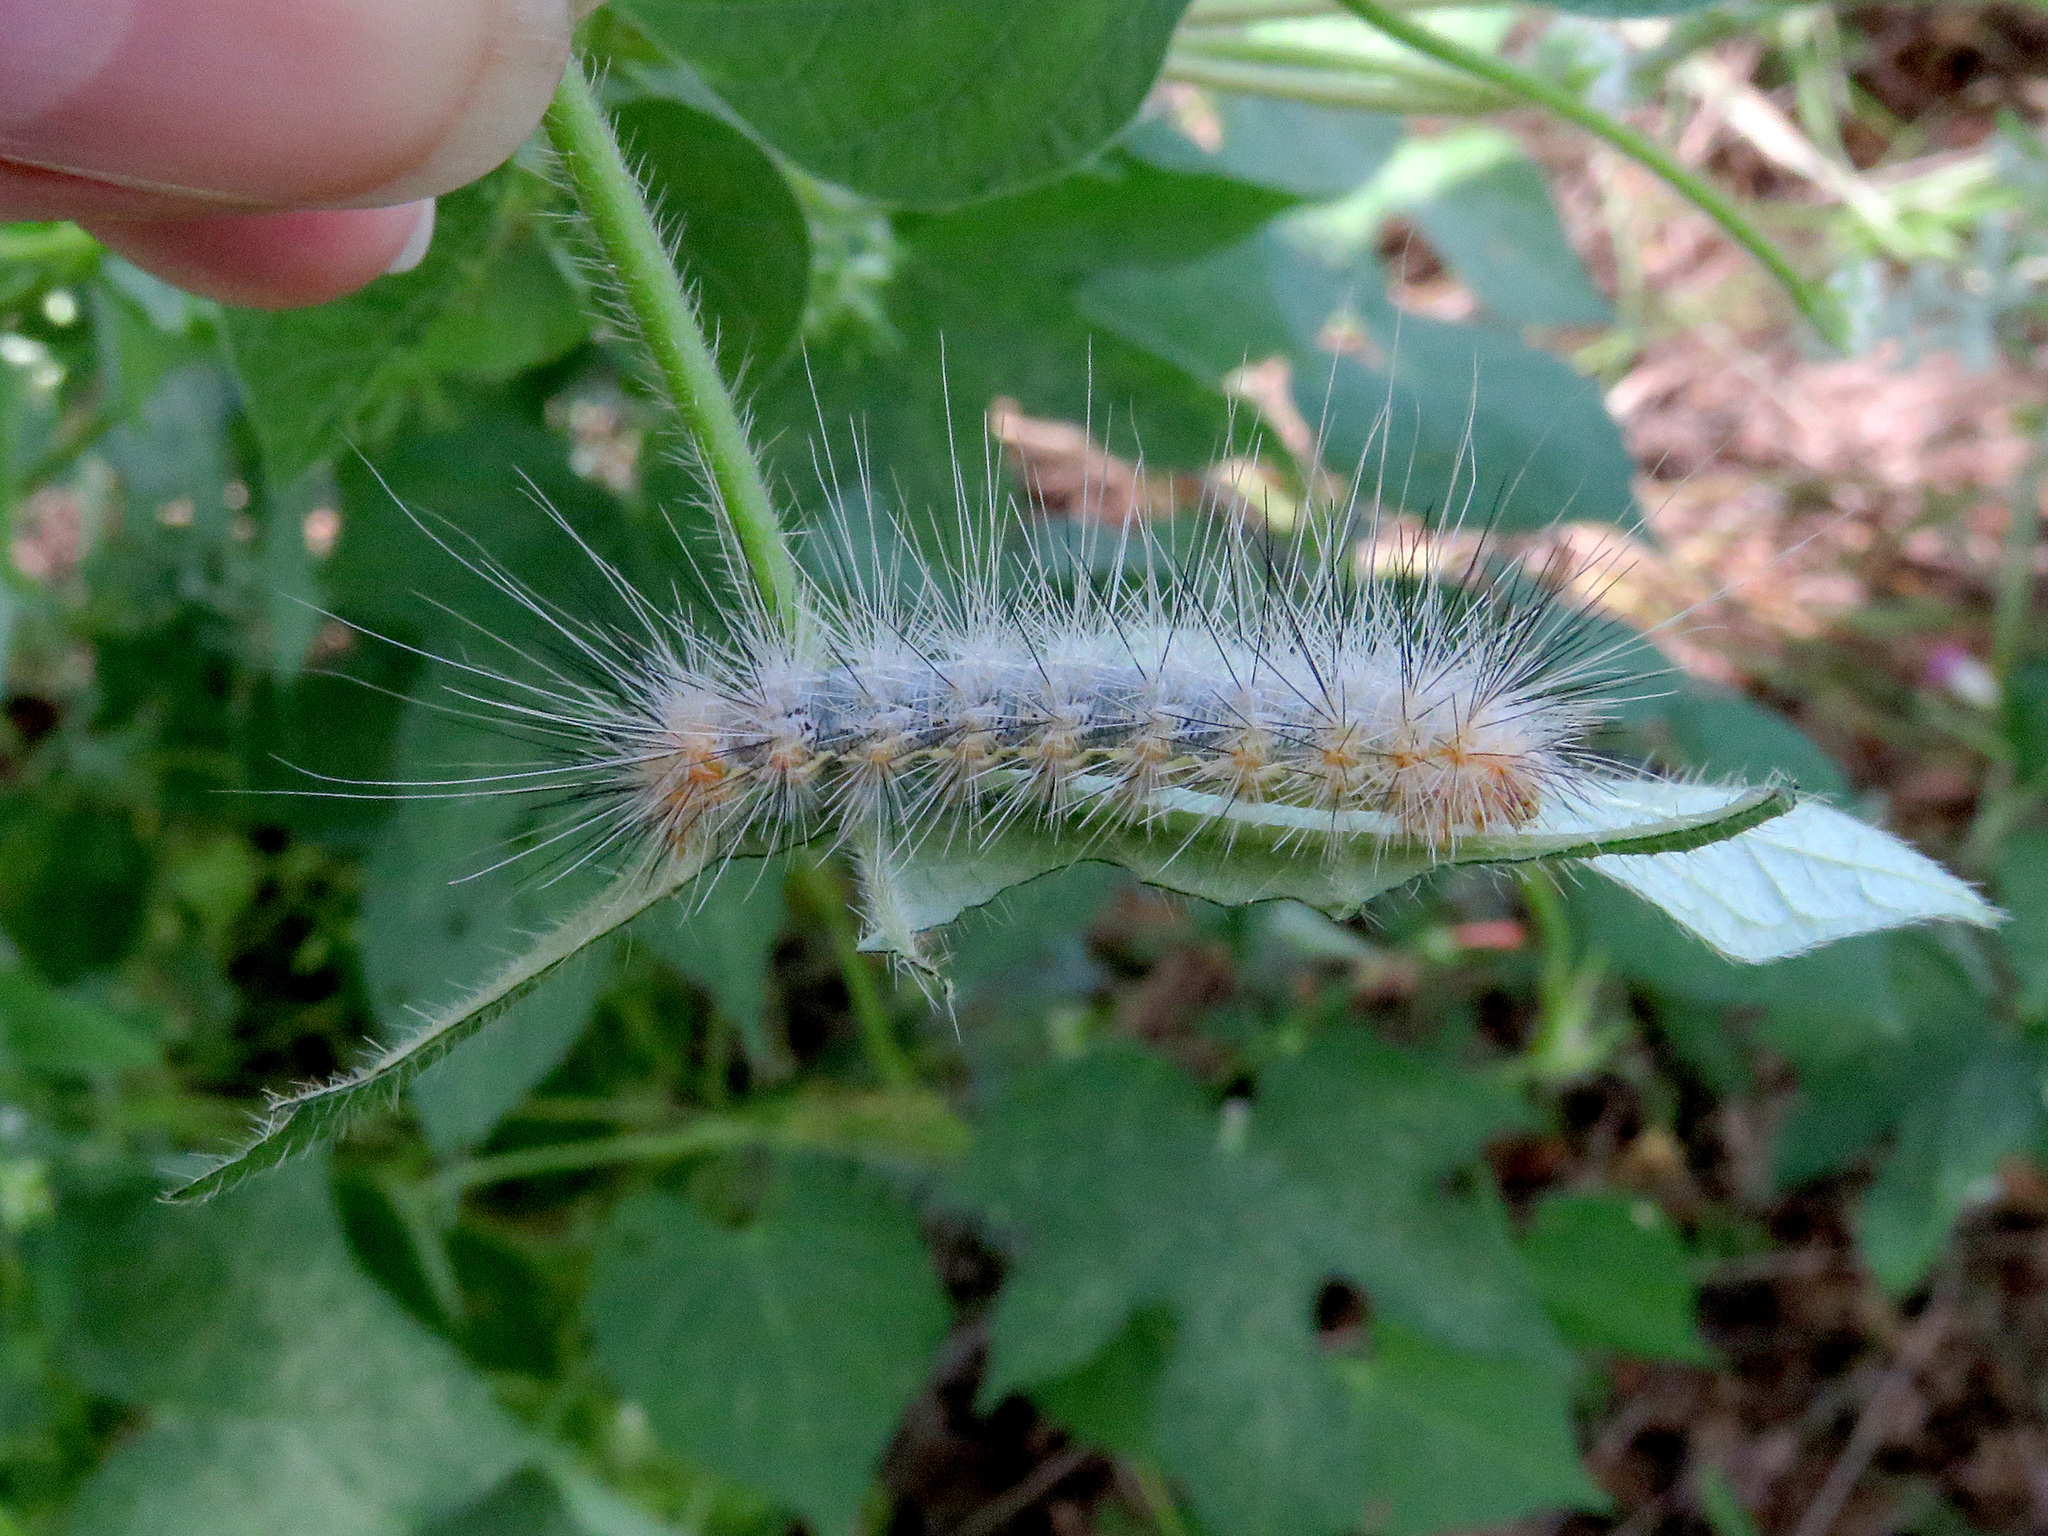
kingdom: Animalia
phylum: Arthropoda
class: Insecta
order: Lepidoptera
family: Erebidae
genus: Hypercompe
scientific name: Hypercompe suffusa
